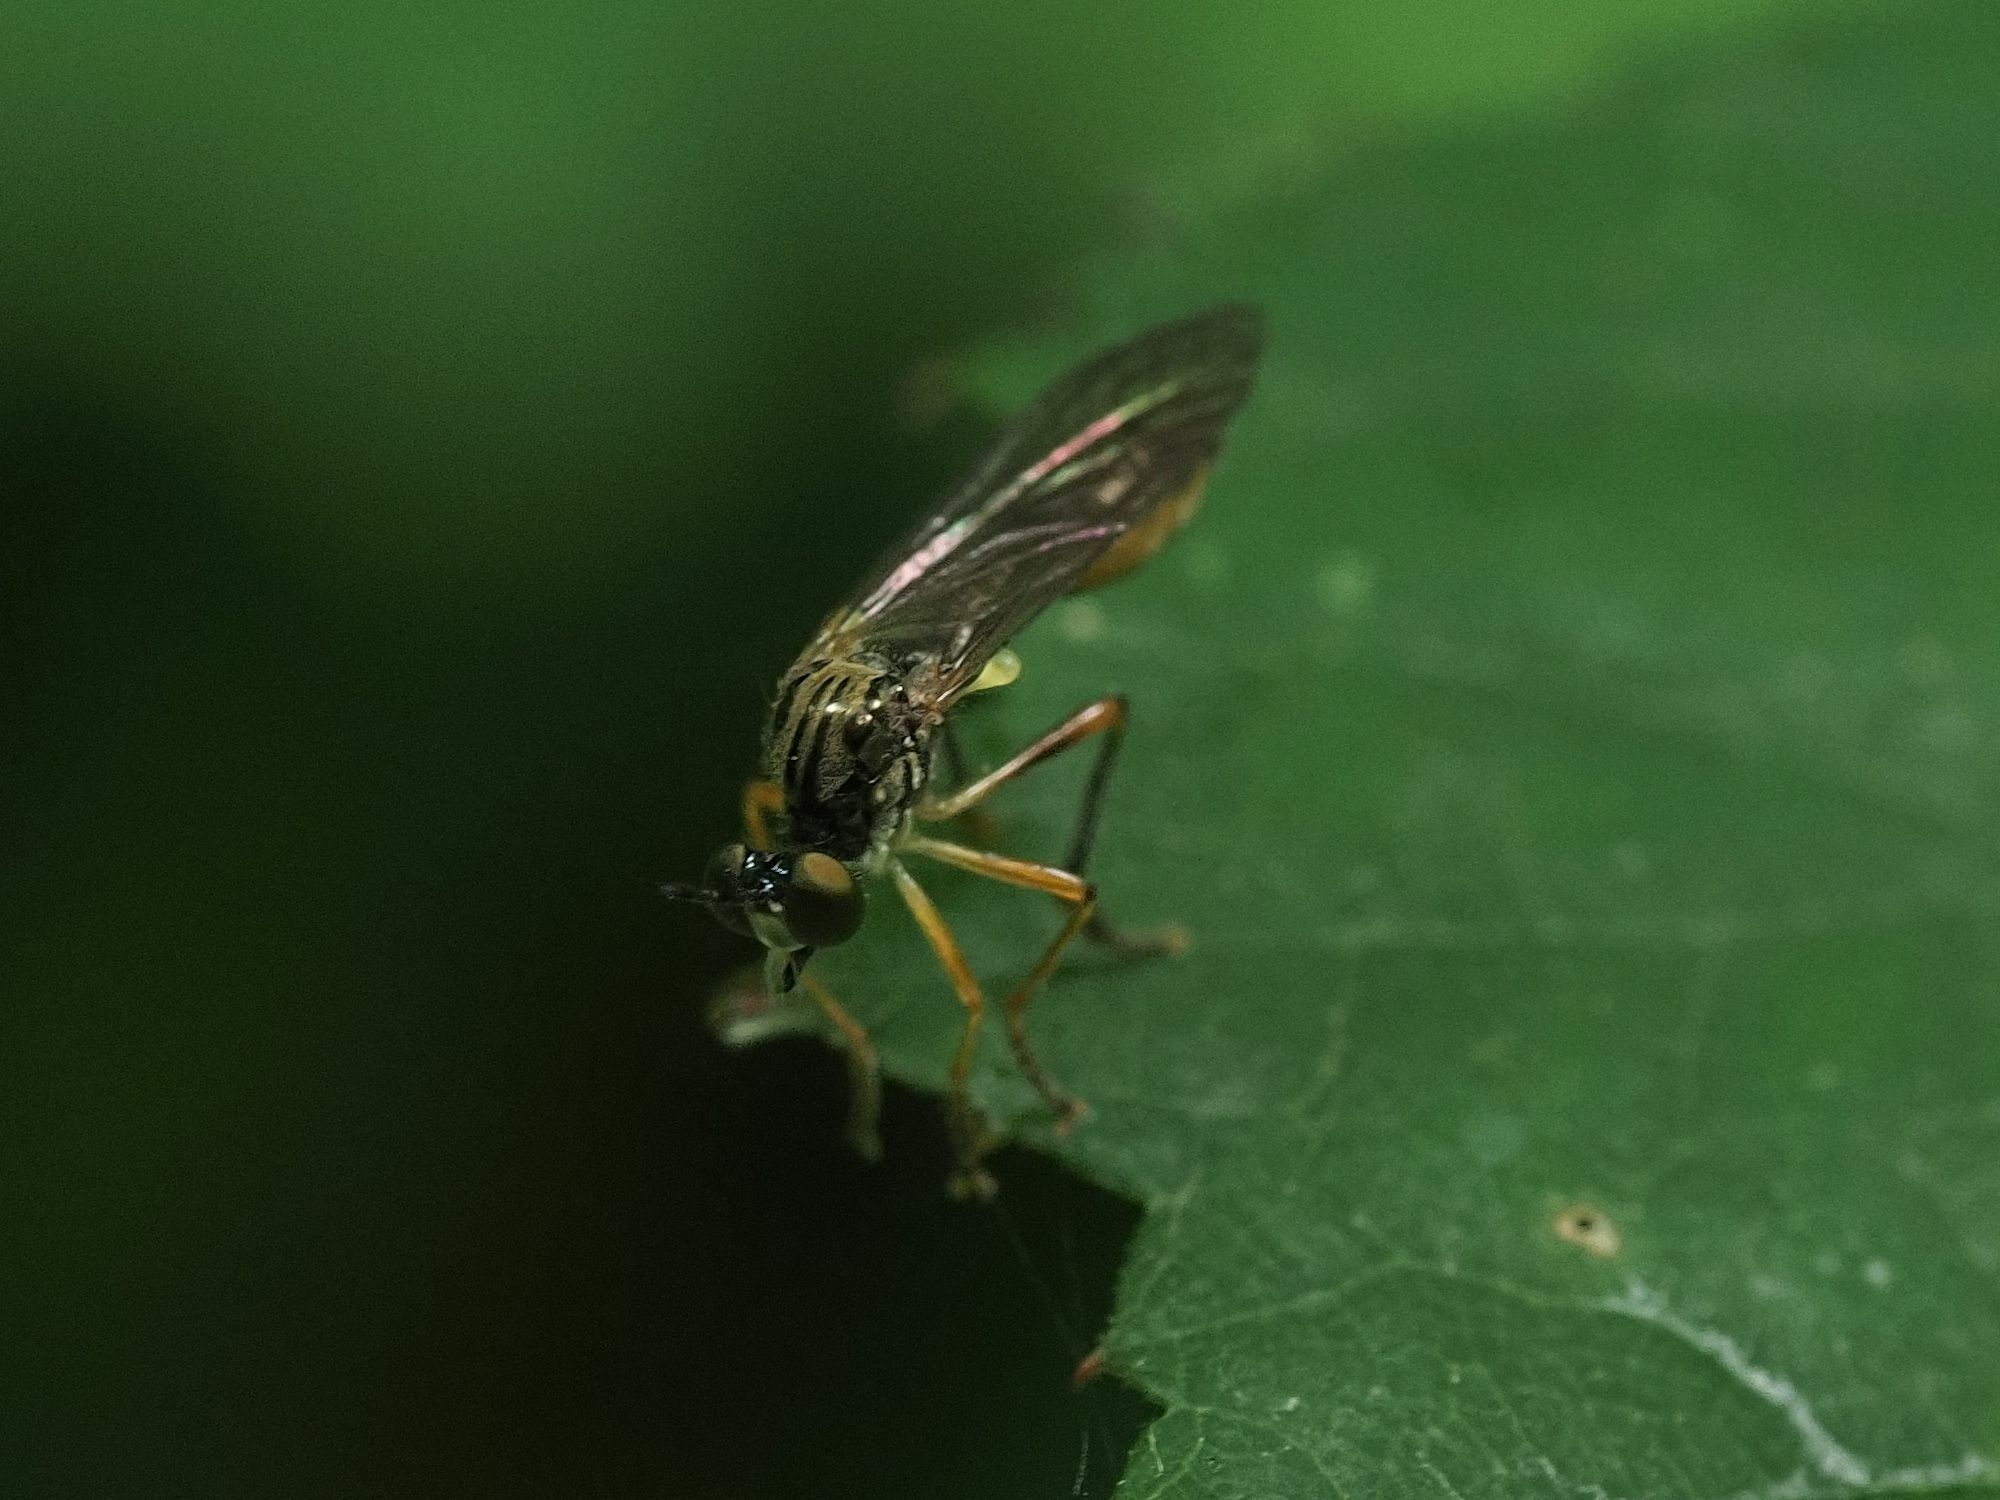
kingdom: Animalia
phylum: Arthropoda
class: Insecta
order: Diptera
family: Asilidae
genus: Dioctria
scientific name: Dioctria linearis
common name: Small yellow-legged robberfly
